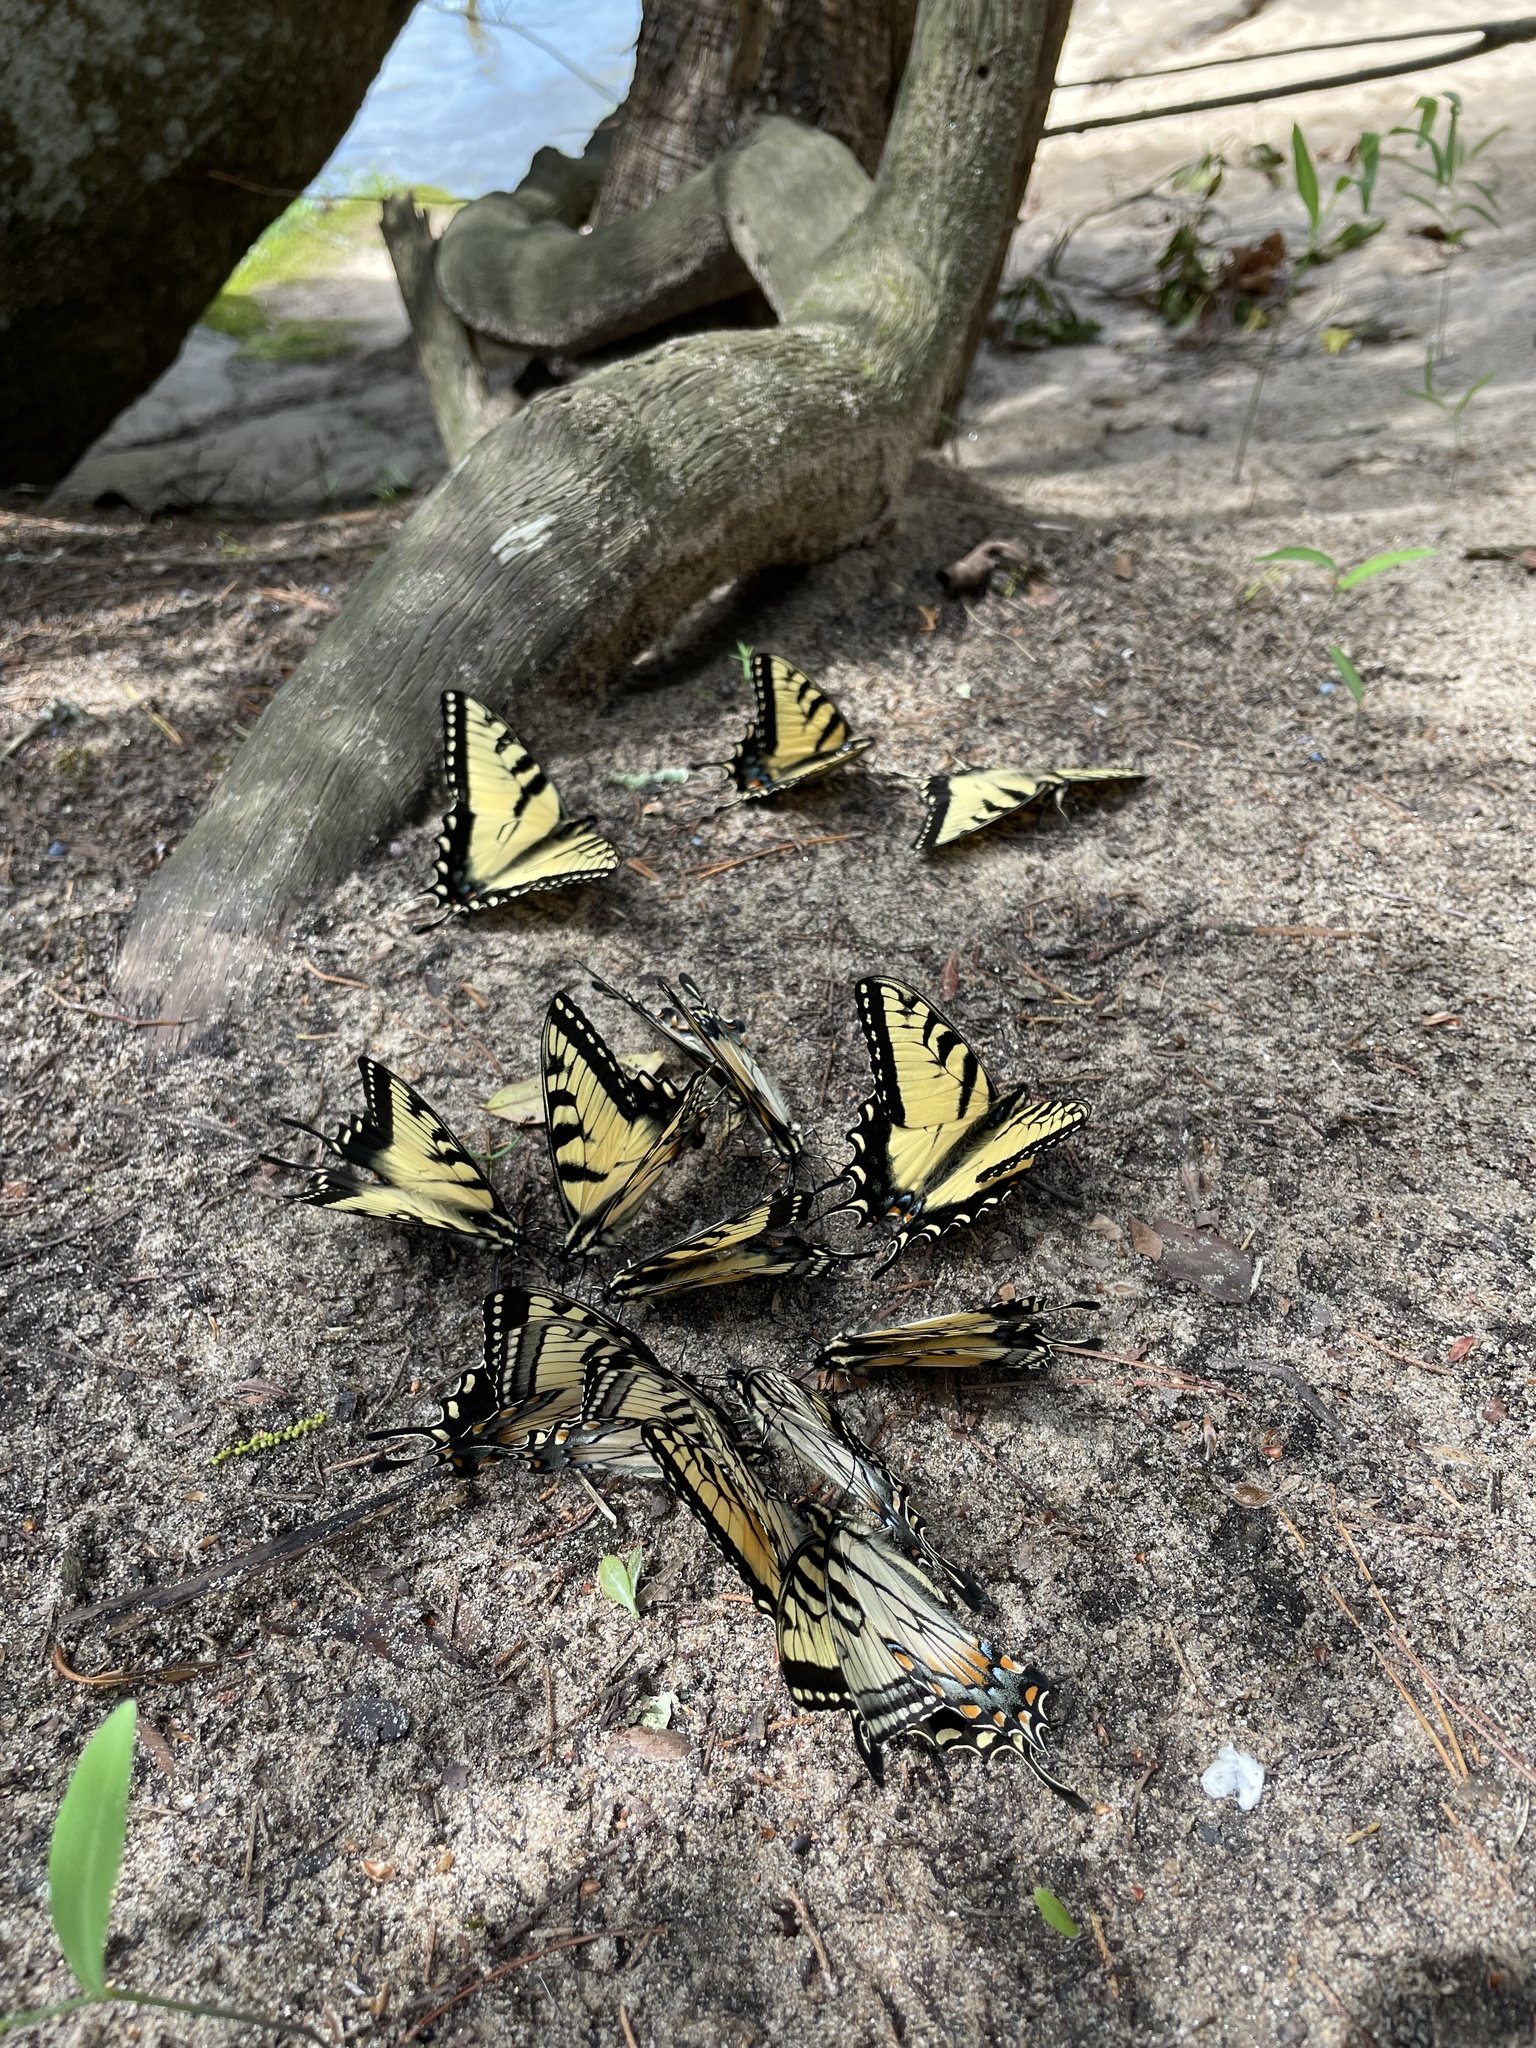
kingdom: Animalia
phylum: Arthropoda
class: Insecta
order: Lepidoptera
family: Papilionidae
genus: Papilio
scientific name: Papilio glaucus
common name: Tiger swallowtail
